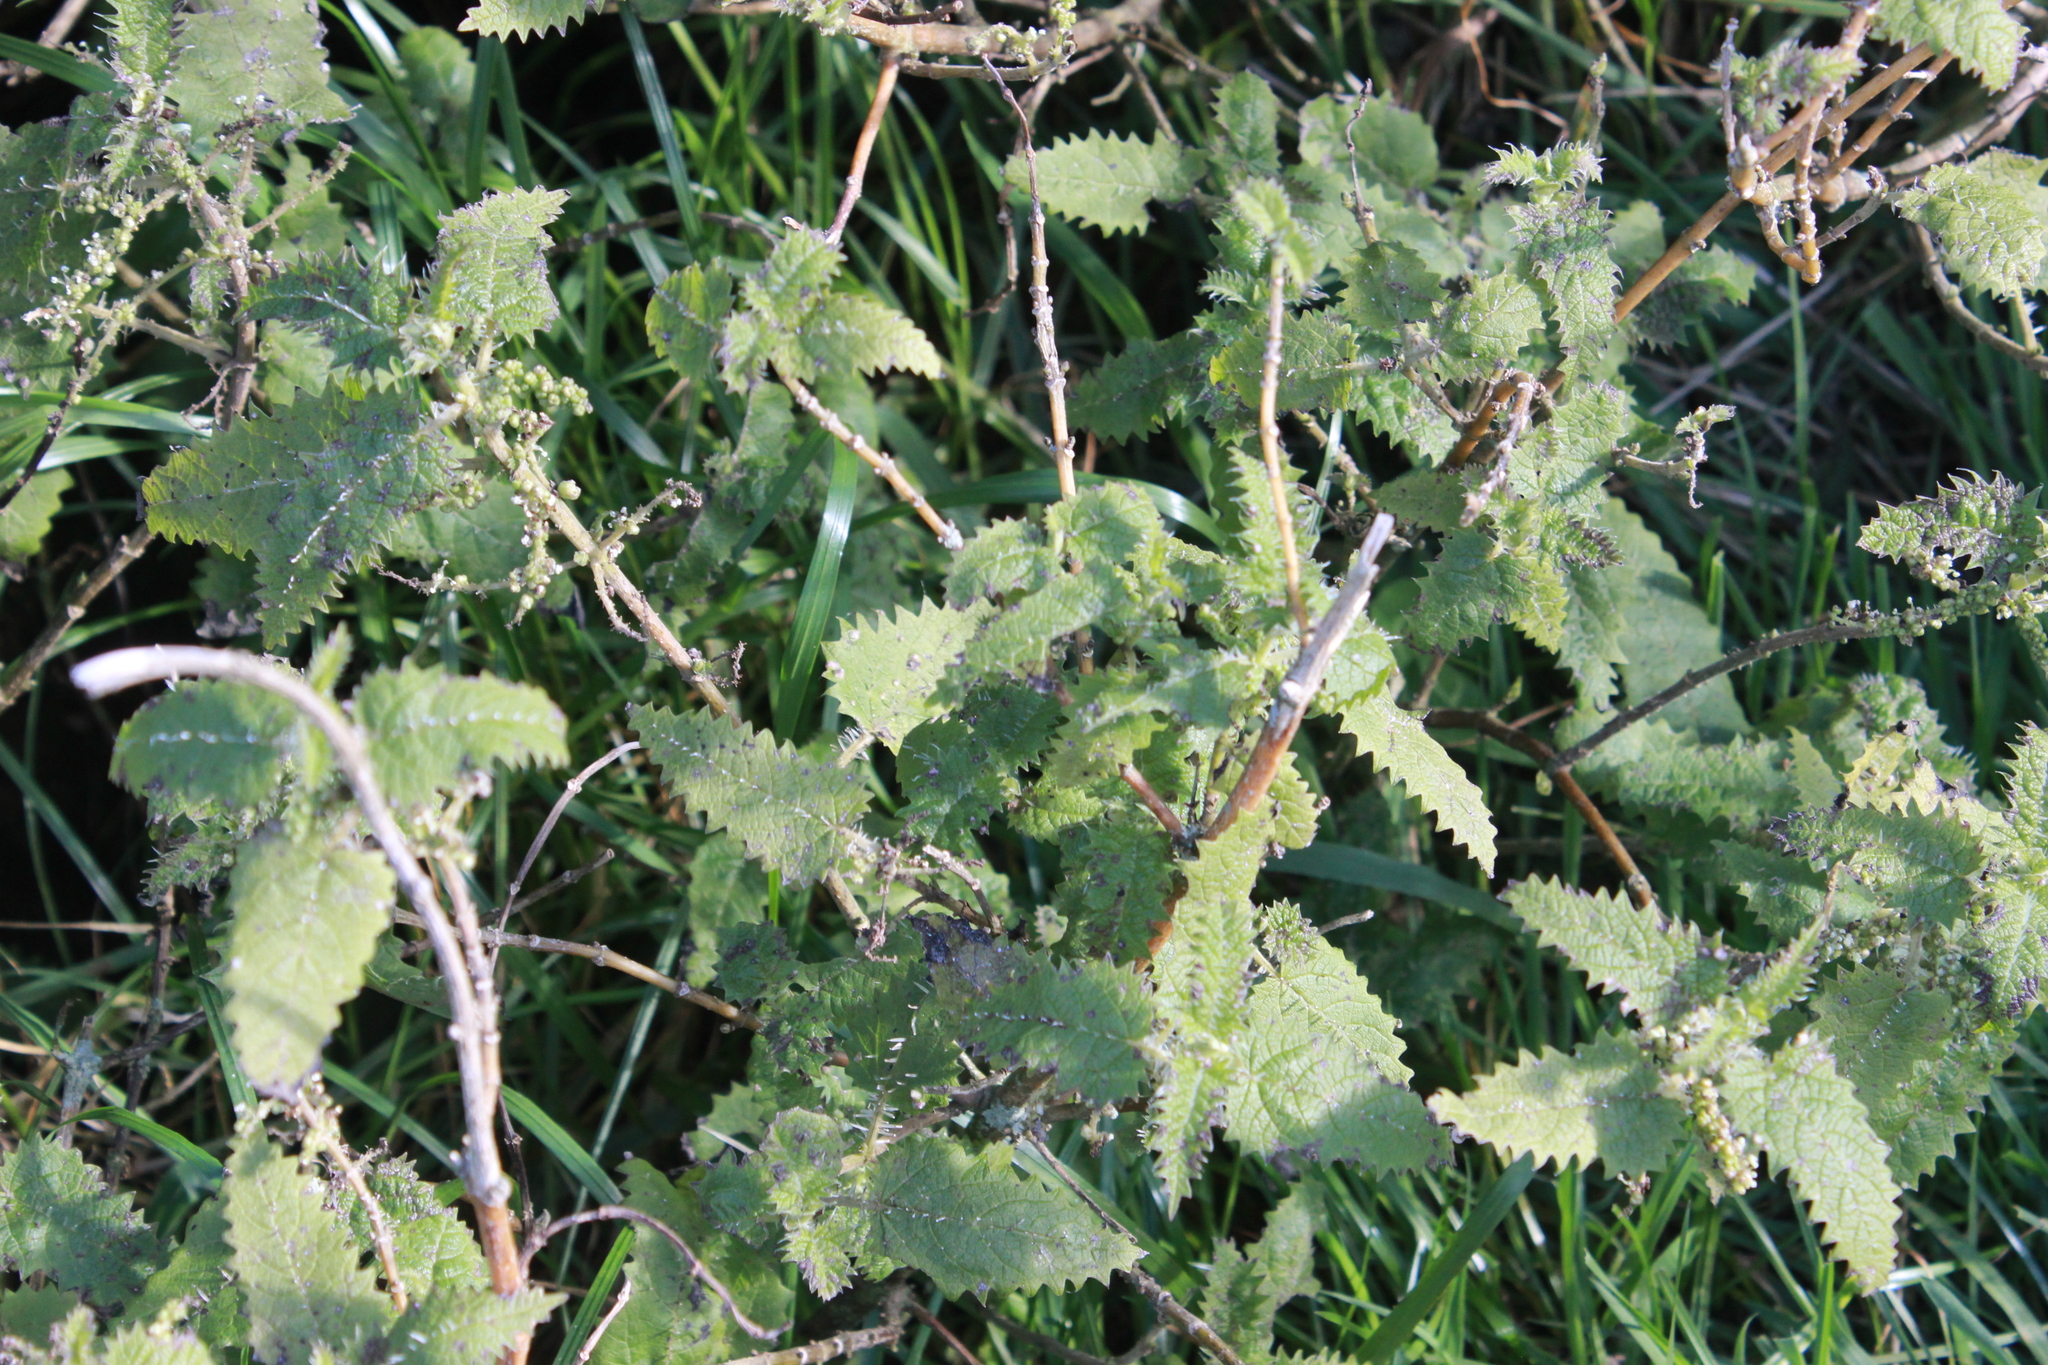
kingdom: Plantae
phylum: Tracheophyta
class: Magnoliopsida
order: Rosales
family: Urticaceae
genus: Urtica
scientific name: Urtica ferox
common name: Tree nettle
